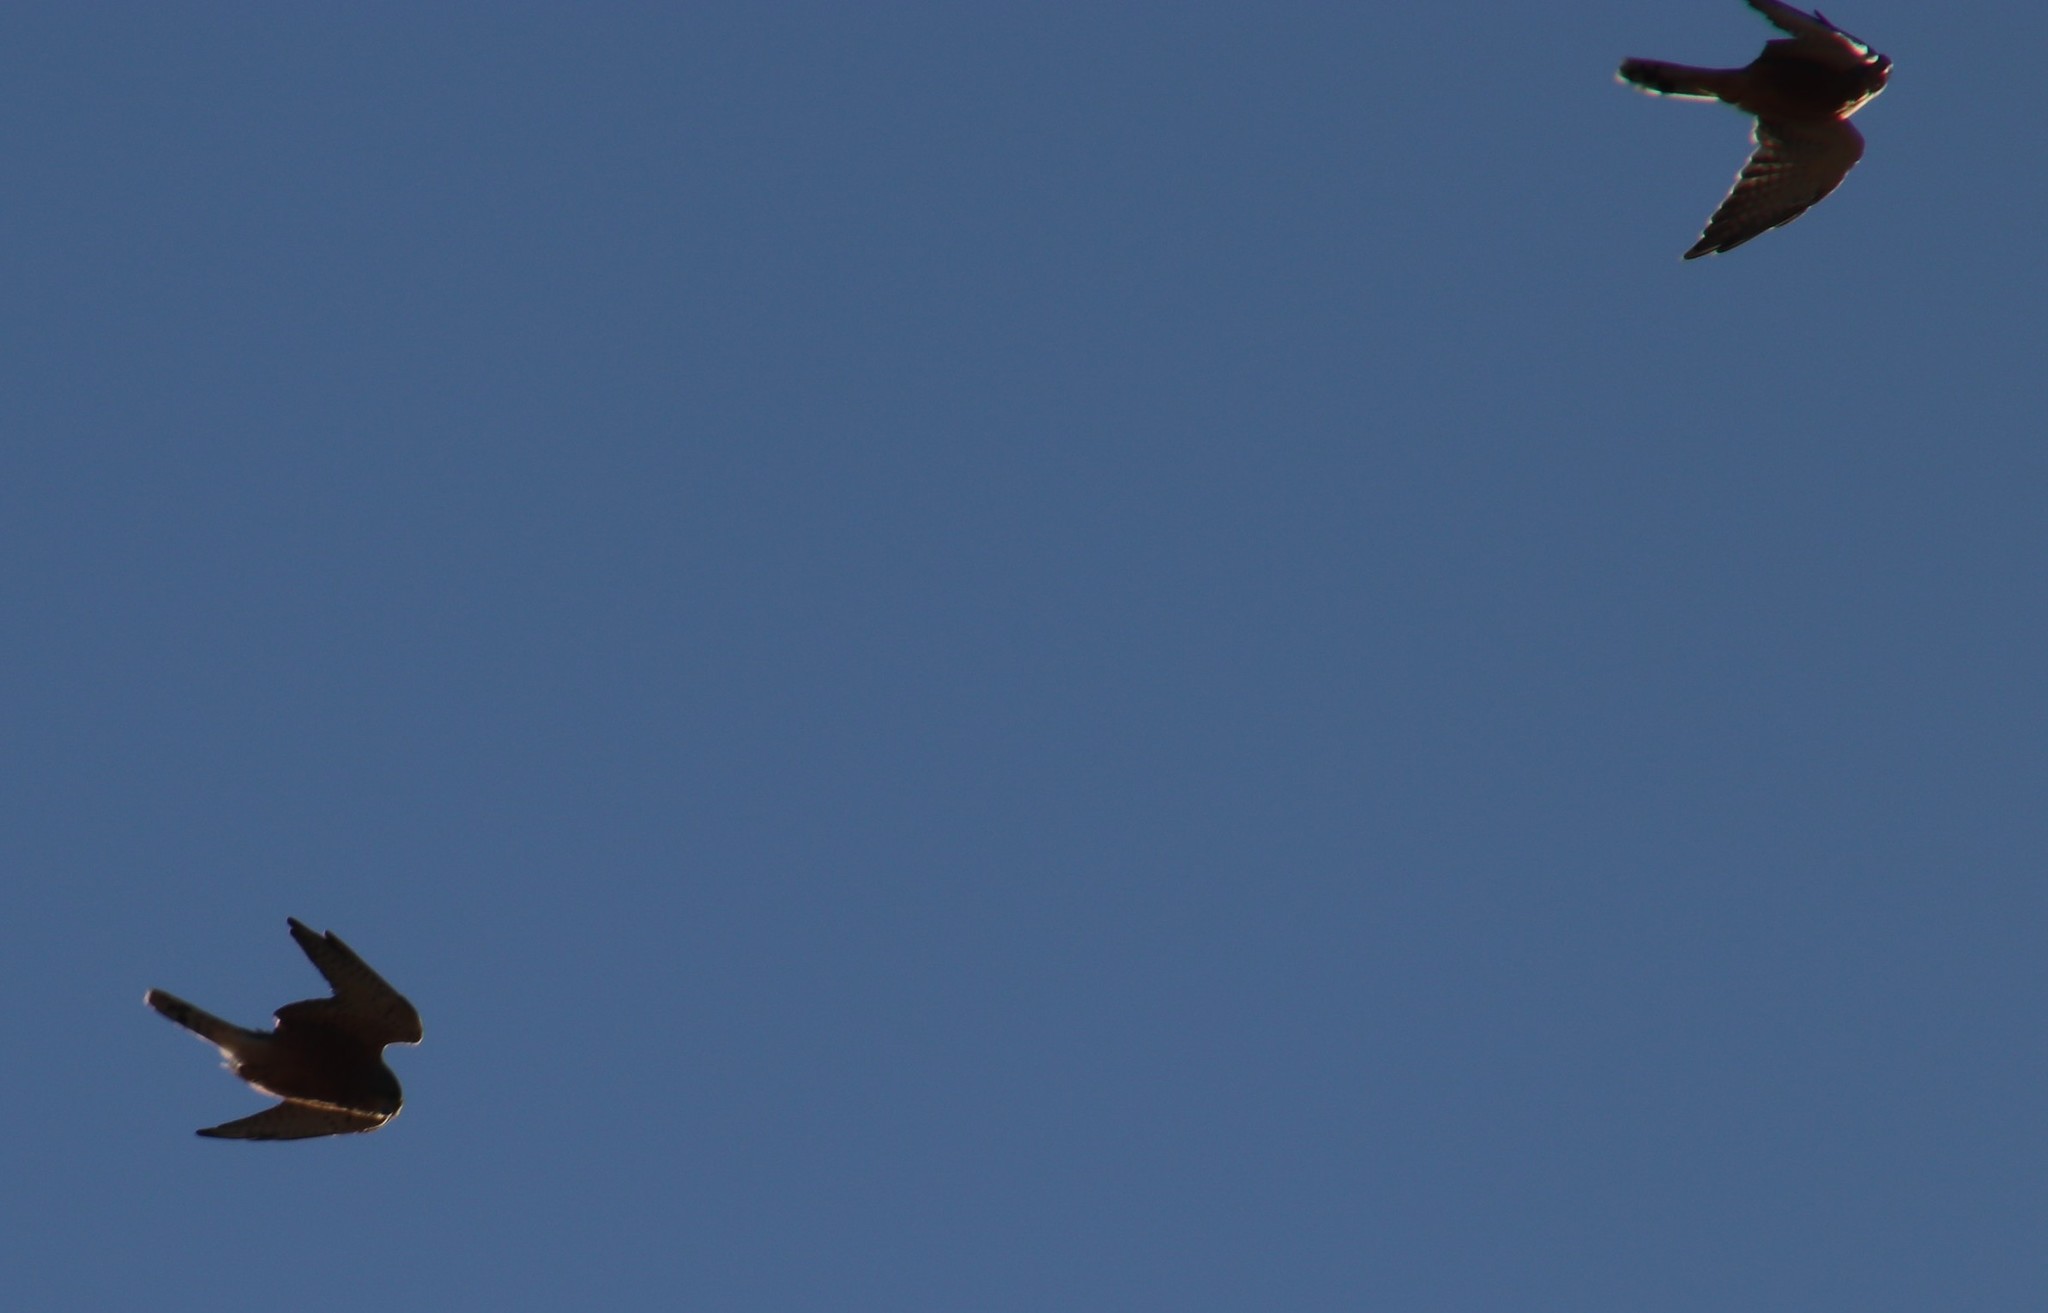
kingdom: Animalia
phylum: Chordata
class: Aves
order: Falconiformes
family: Falconidae
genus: Falco
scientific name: Falco rupicolus
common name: Rock kestrel
